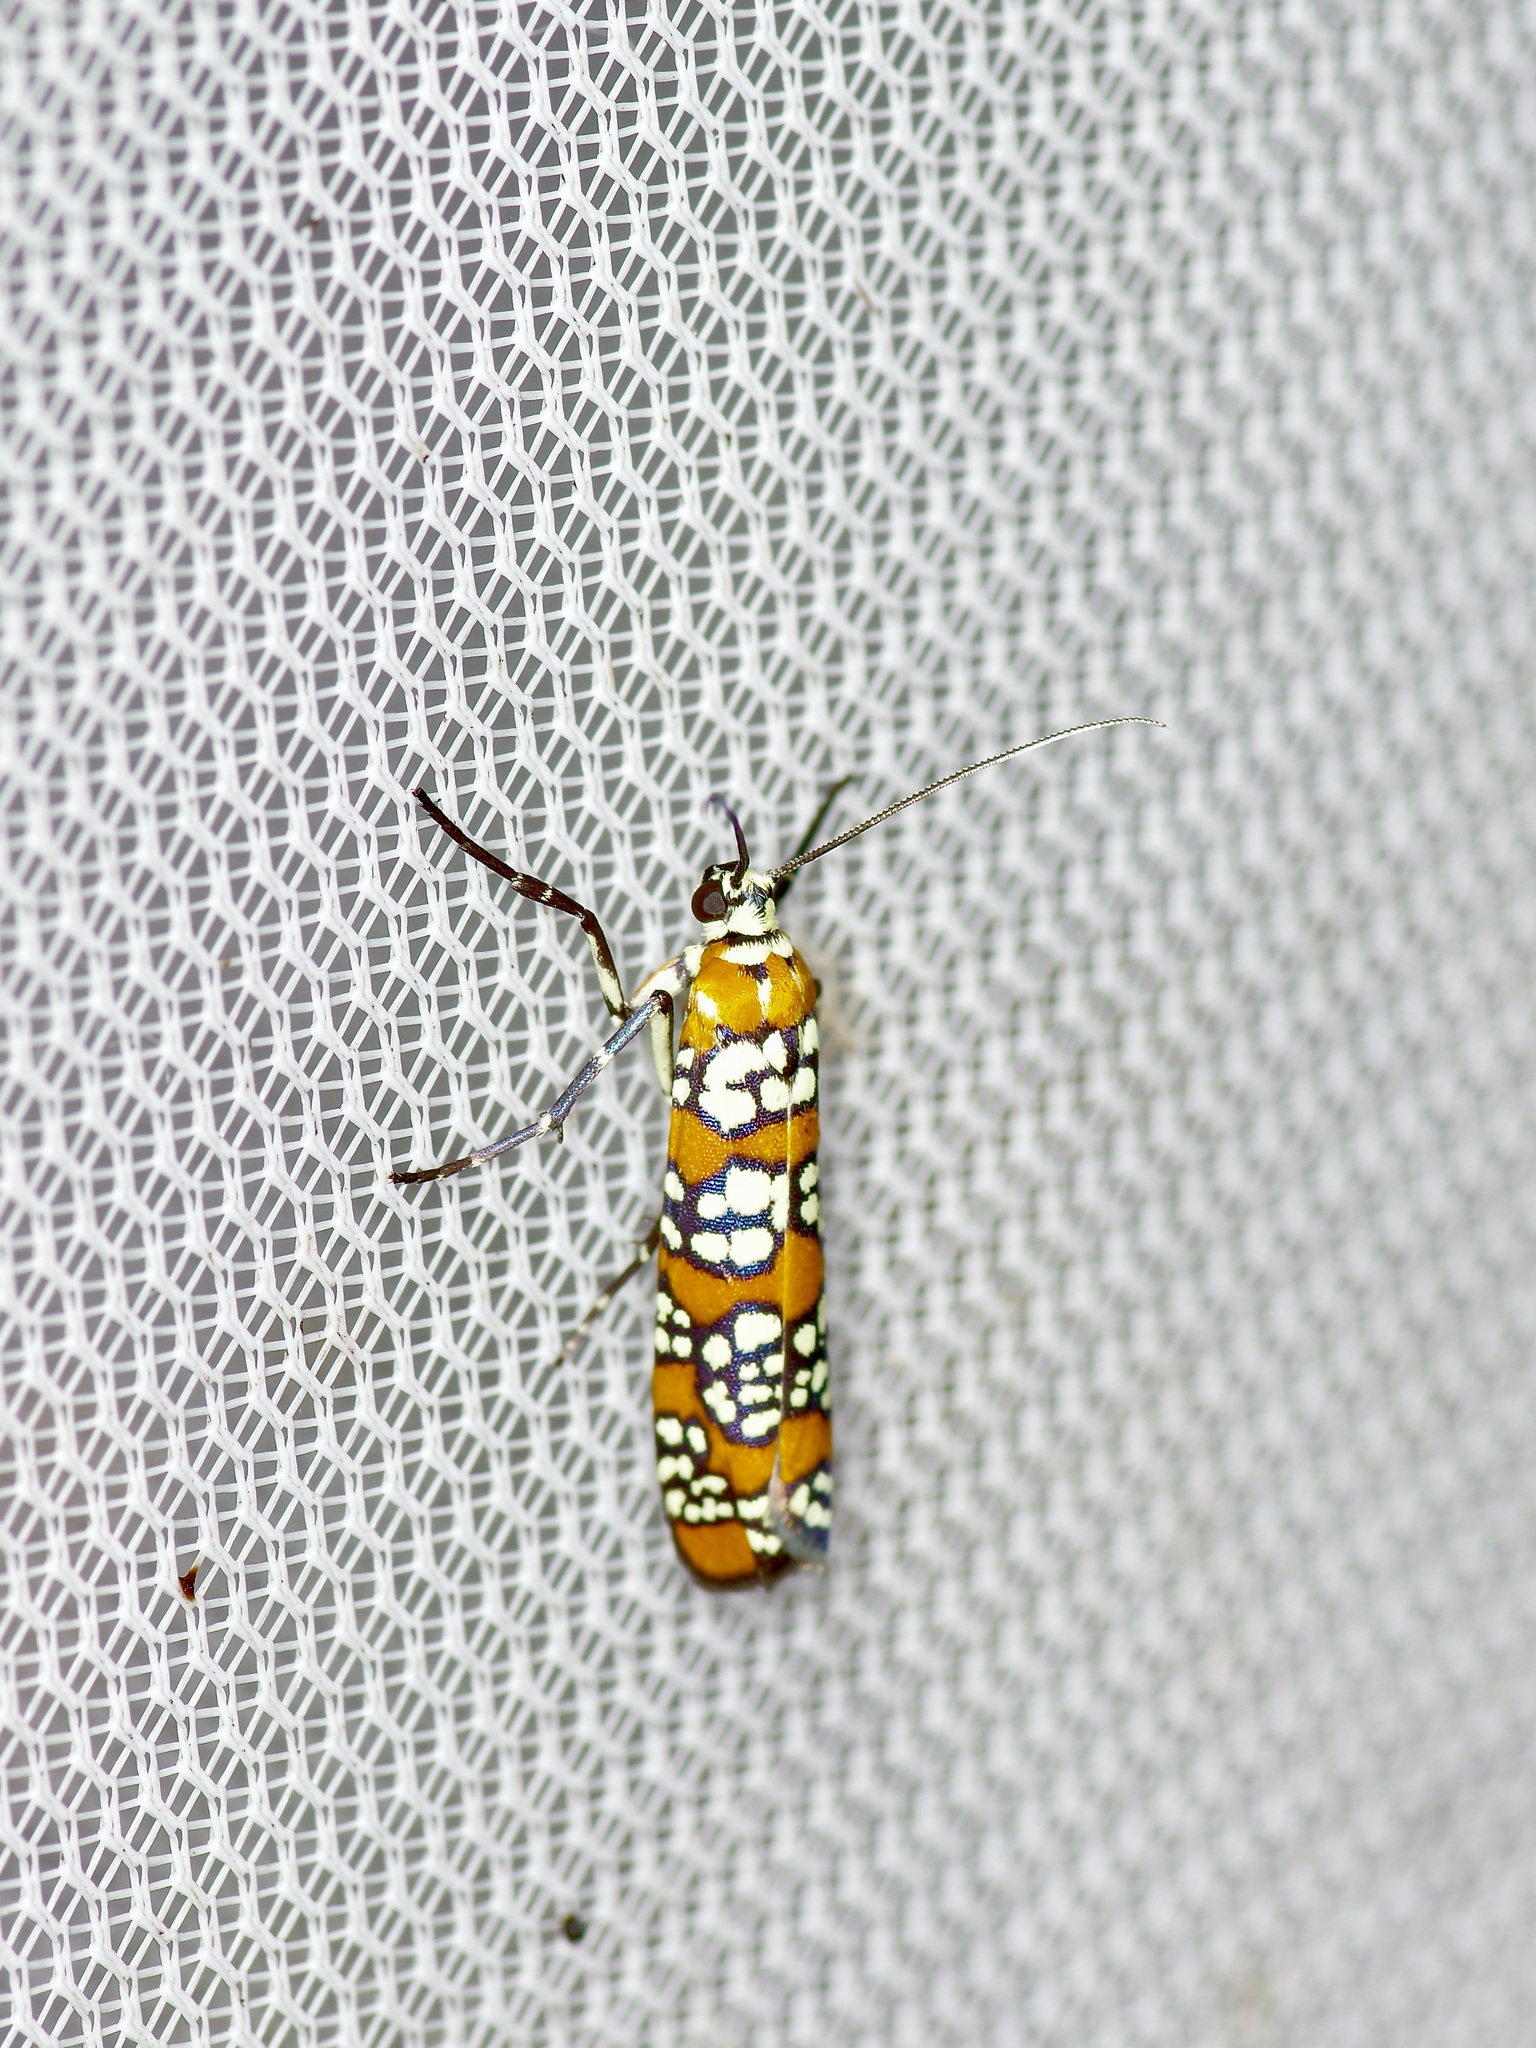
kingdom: Animalia
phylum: Arthropoda
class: Insecta
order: Lepidoptera
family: Attevidae
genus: Atteva
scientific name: Atteva punctella
